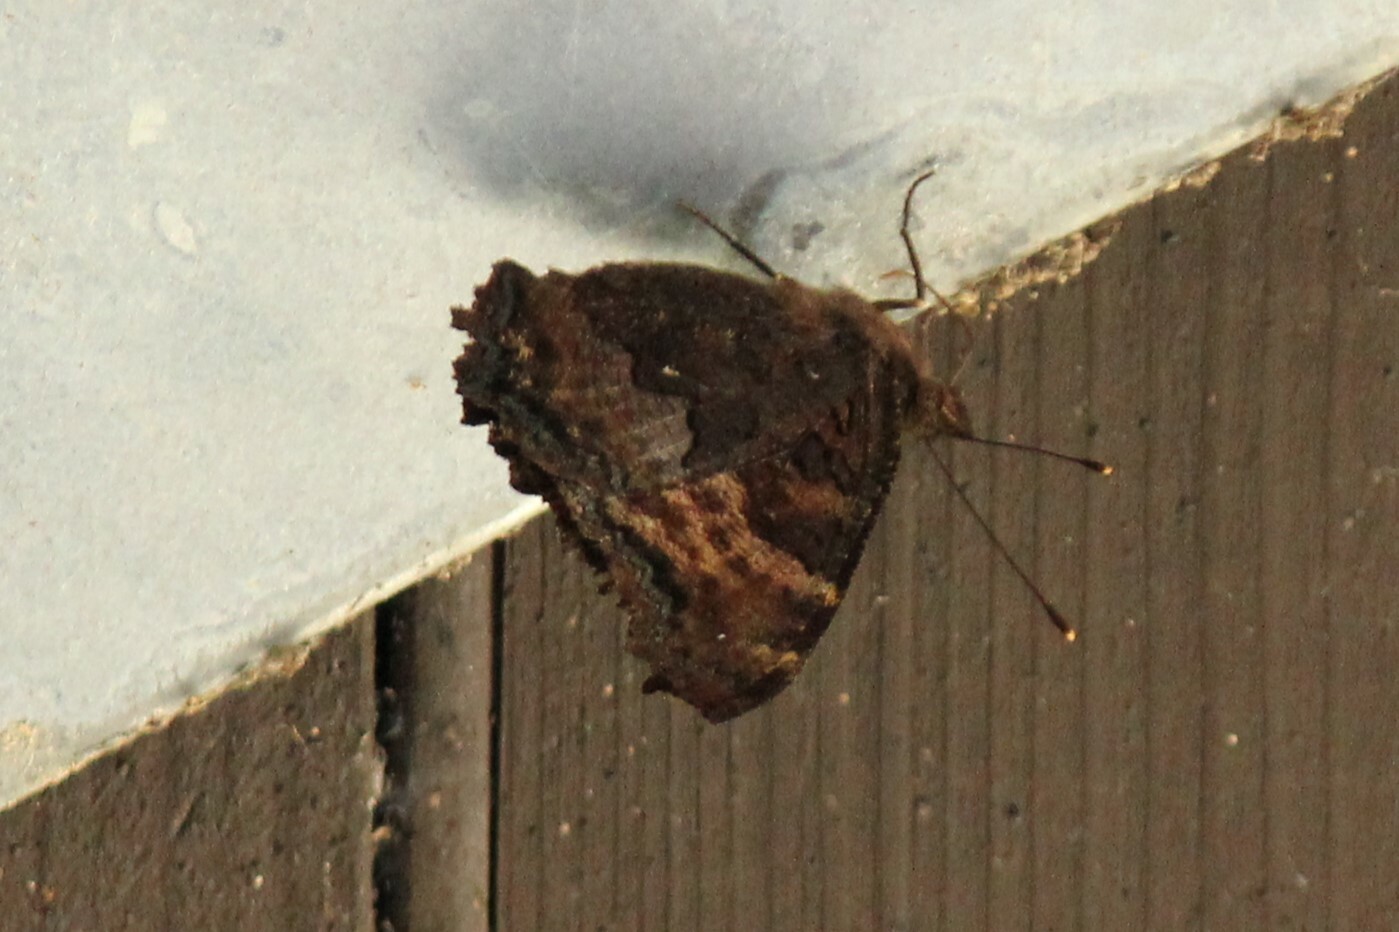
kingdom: Animalia
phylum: Arthropoda
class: Insecta
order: Lepidoptera
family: Nymphalidae
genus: Nymphalis
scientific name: Nymphalis californica
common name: California tortoiseshell
